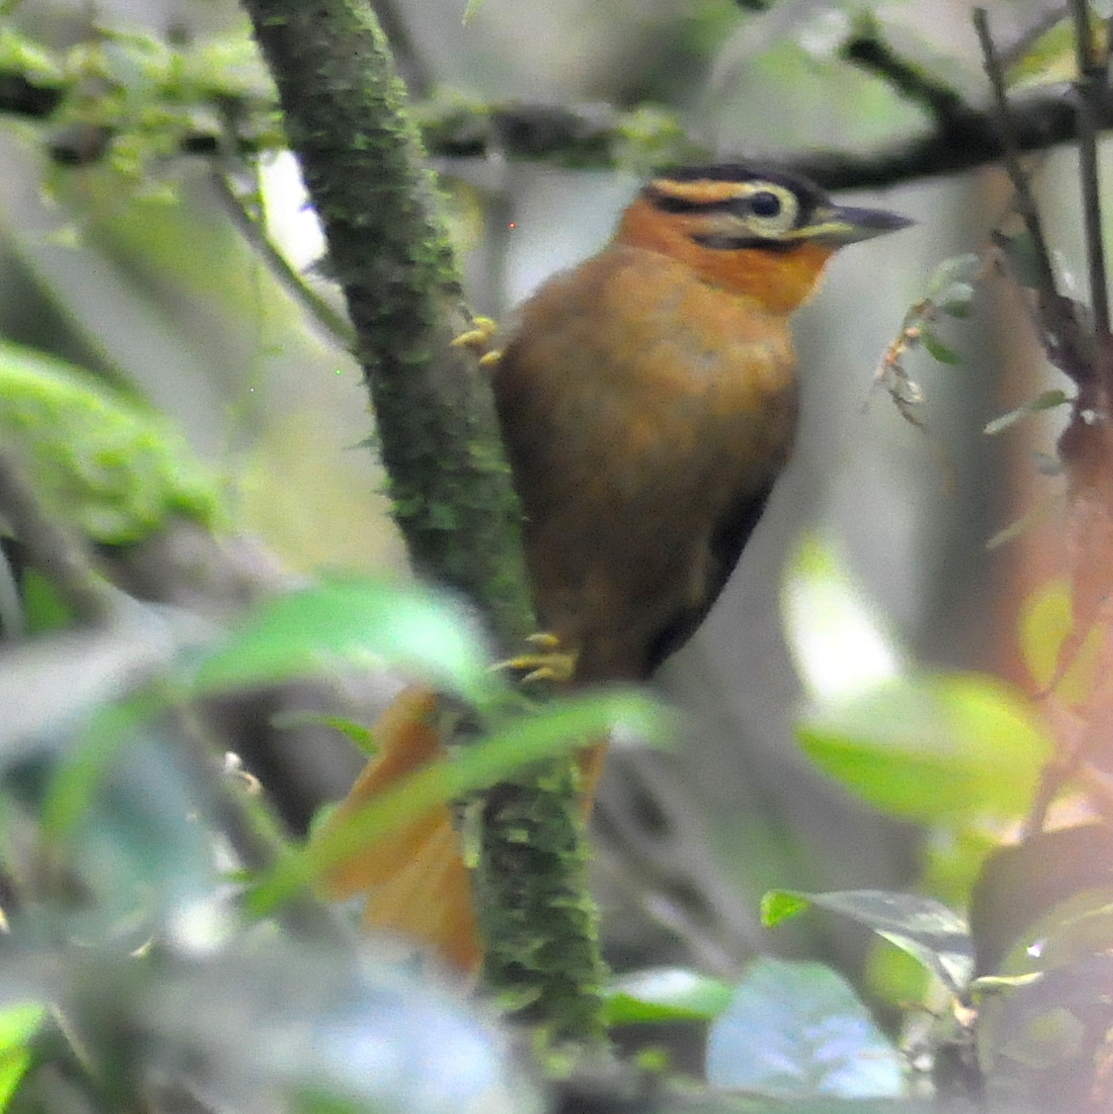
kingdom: Animalia
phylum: Chordata
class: Aves
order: Passeriformes
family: Furnariidae
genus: Philydor
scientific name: Philydor atricapillus
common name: Black-capped foliage-gleaner
